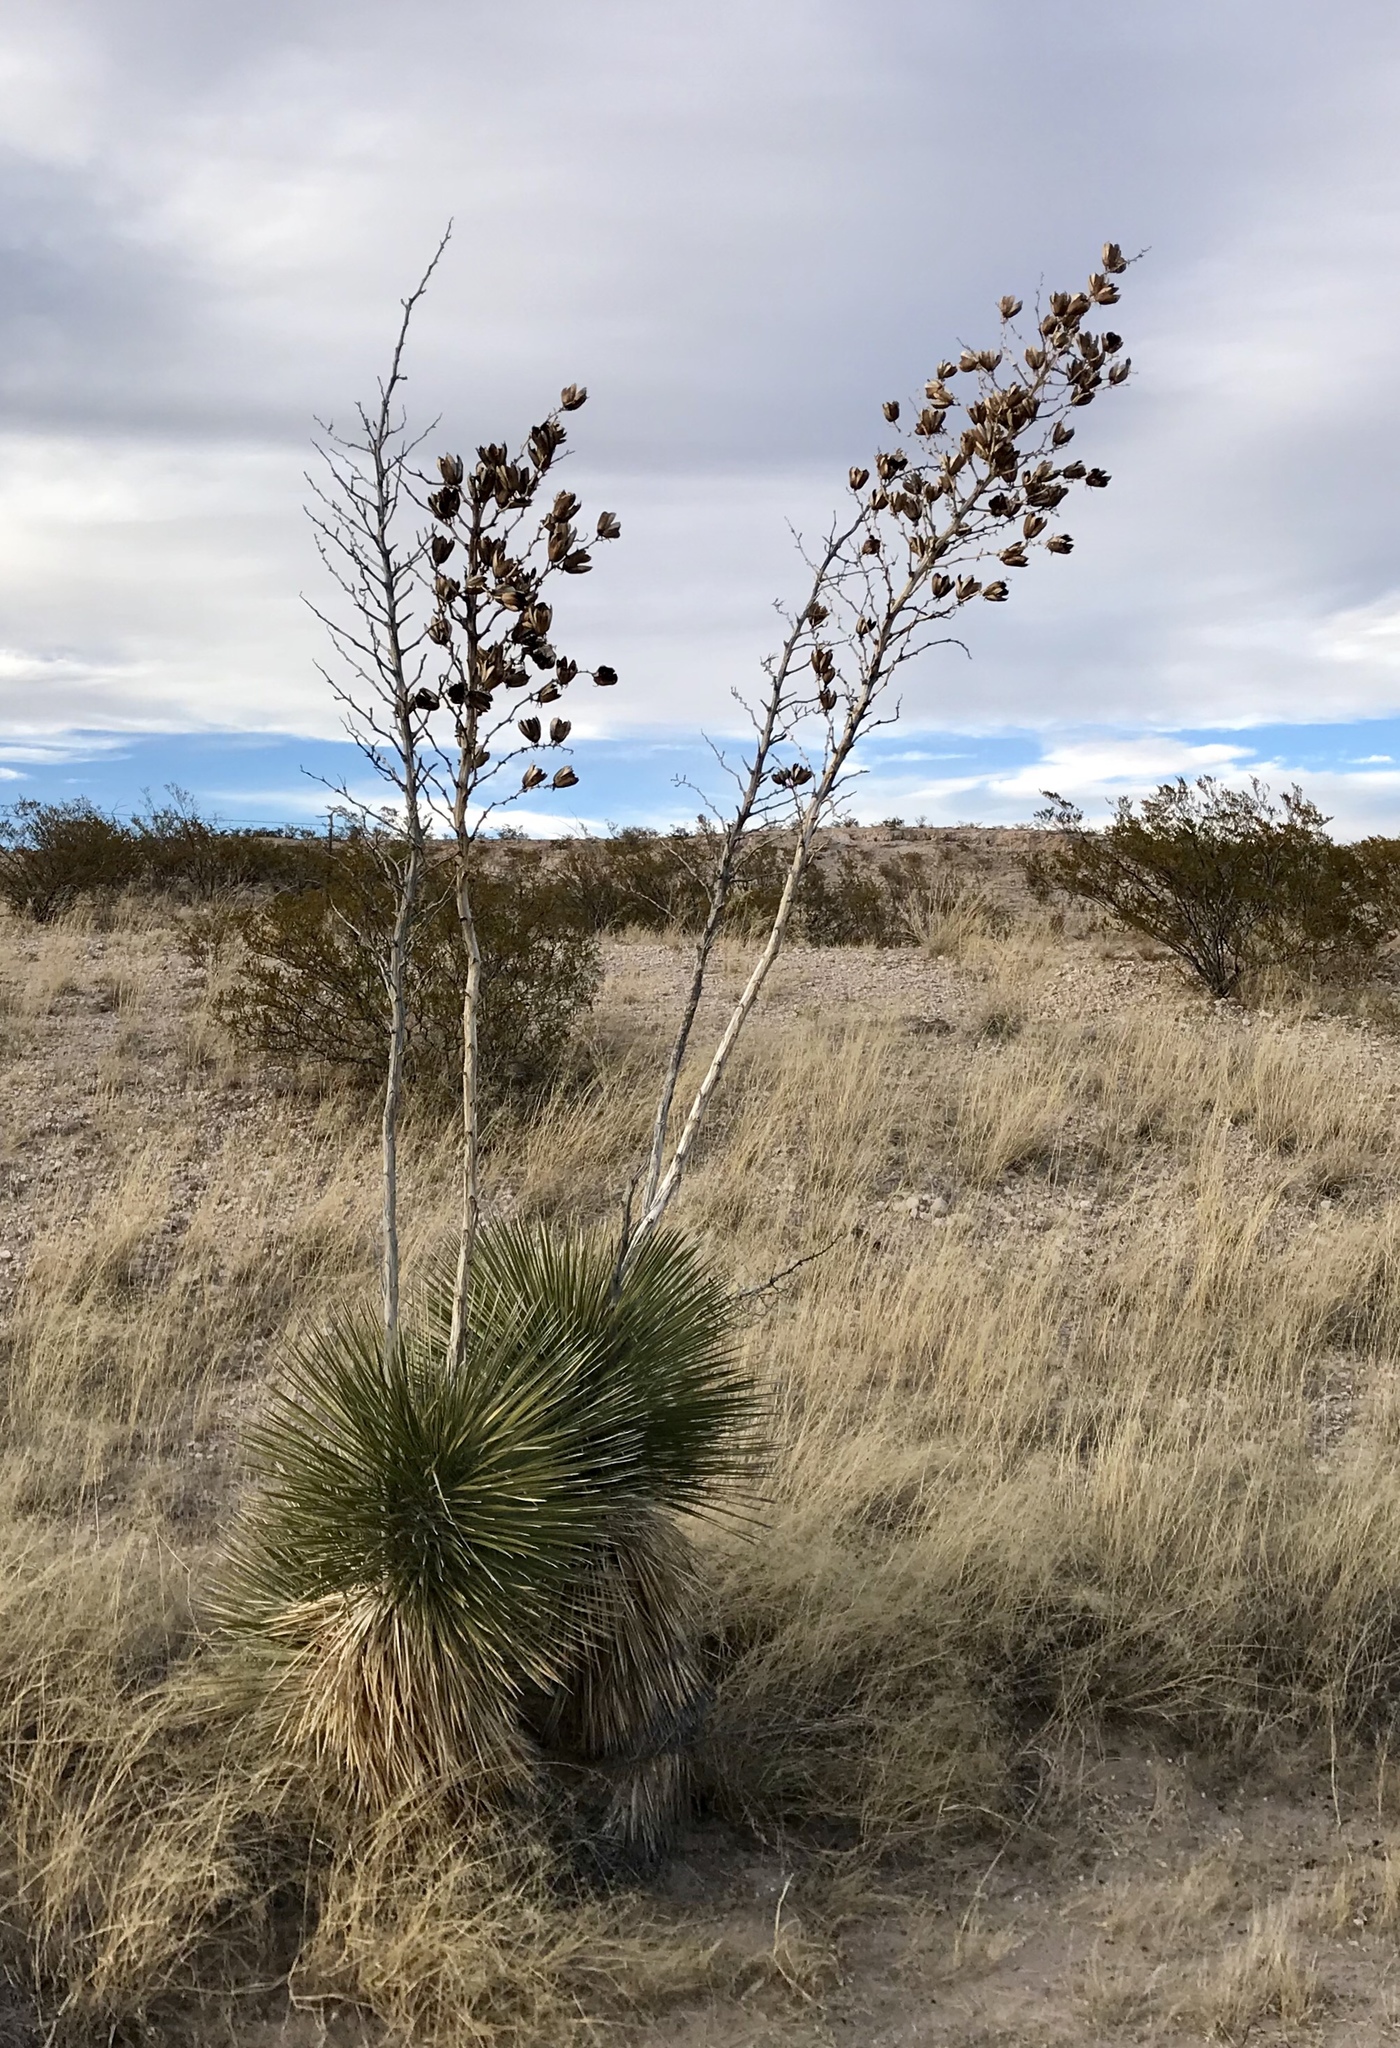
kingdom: Plantae
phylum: Tracheophyta
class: Liliopsida
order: Asparagales
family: Asparagaceae
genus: Yucca
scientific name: Yucca elata
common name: Palmella
